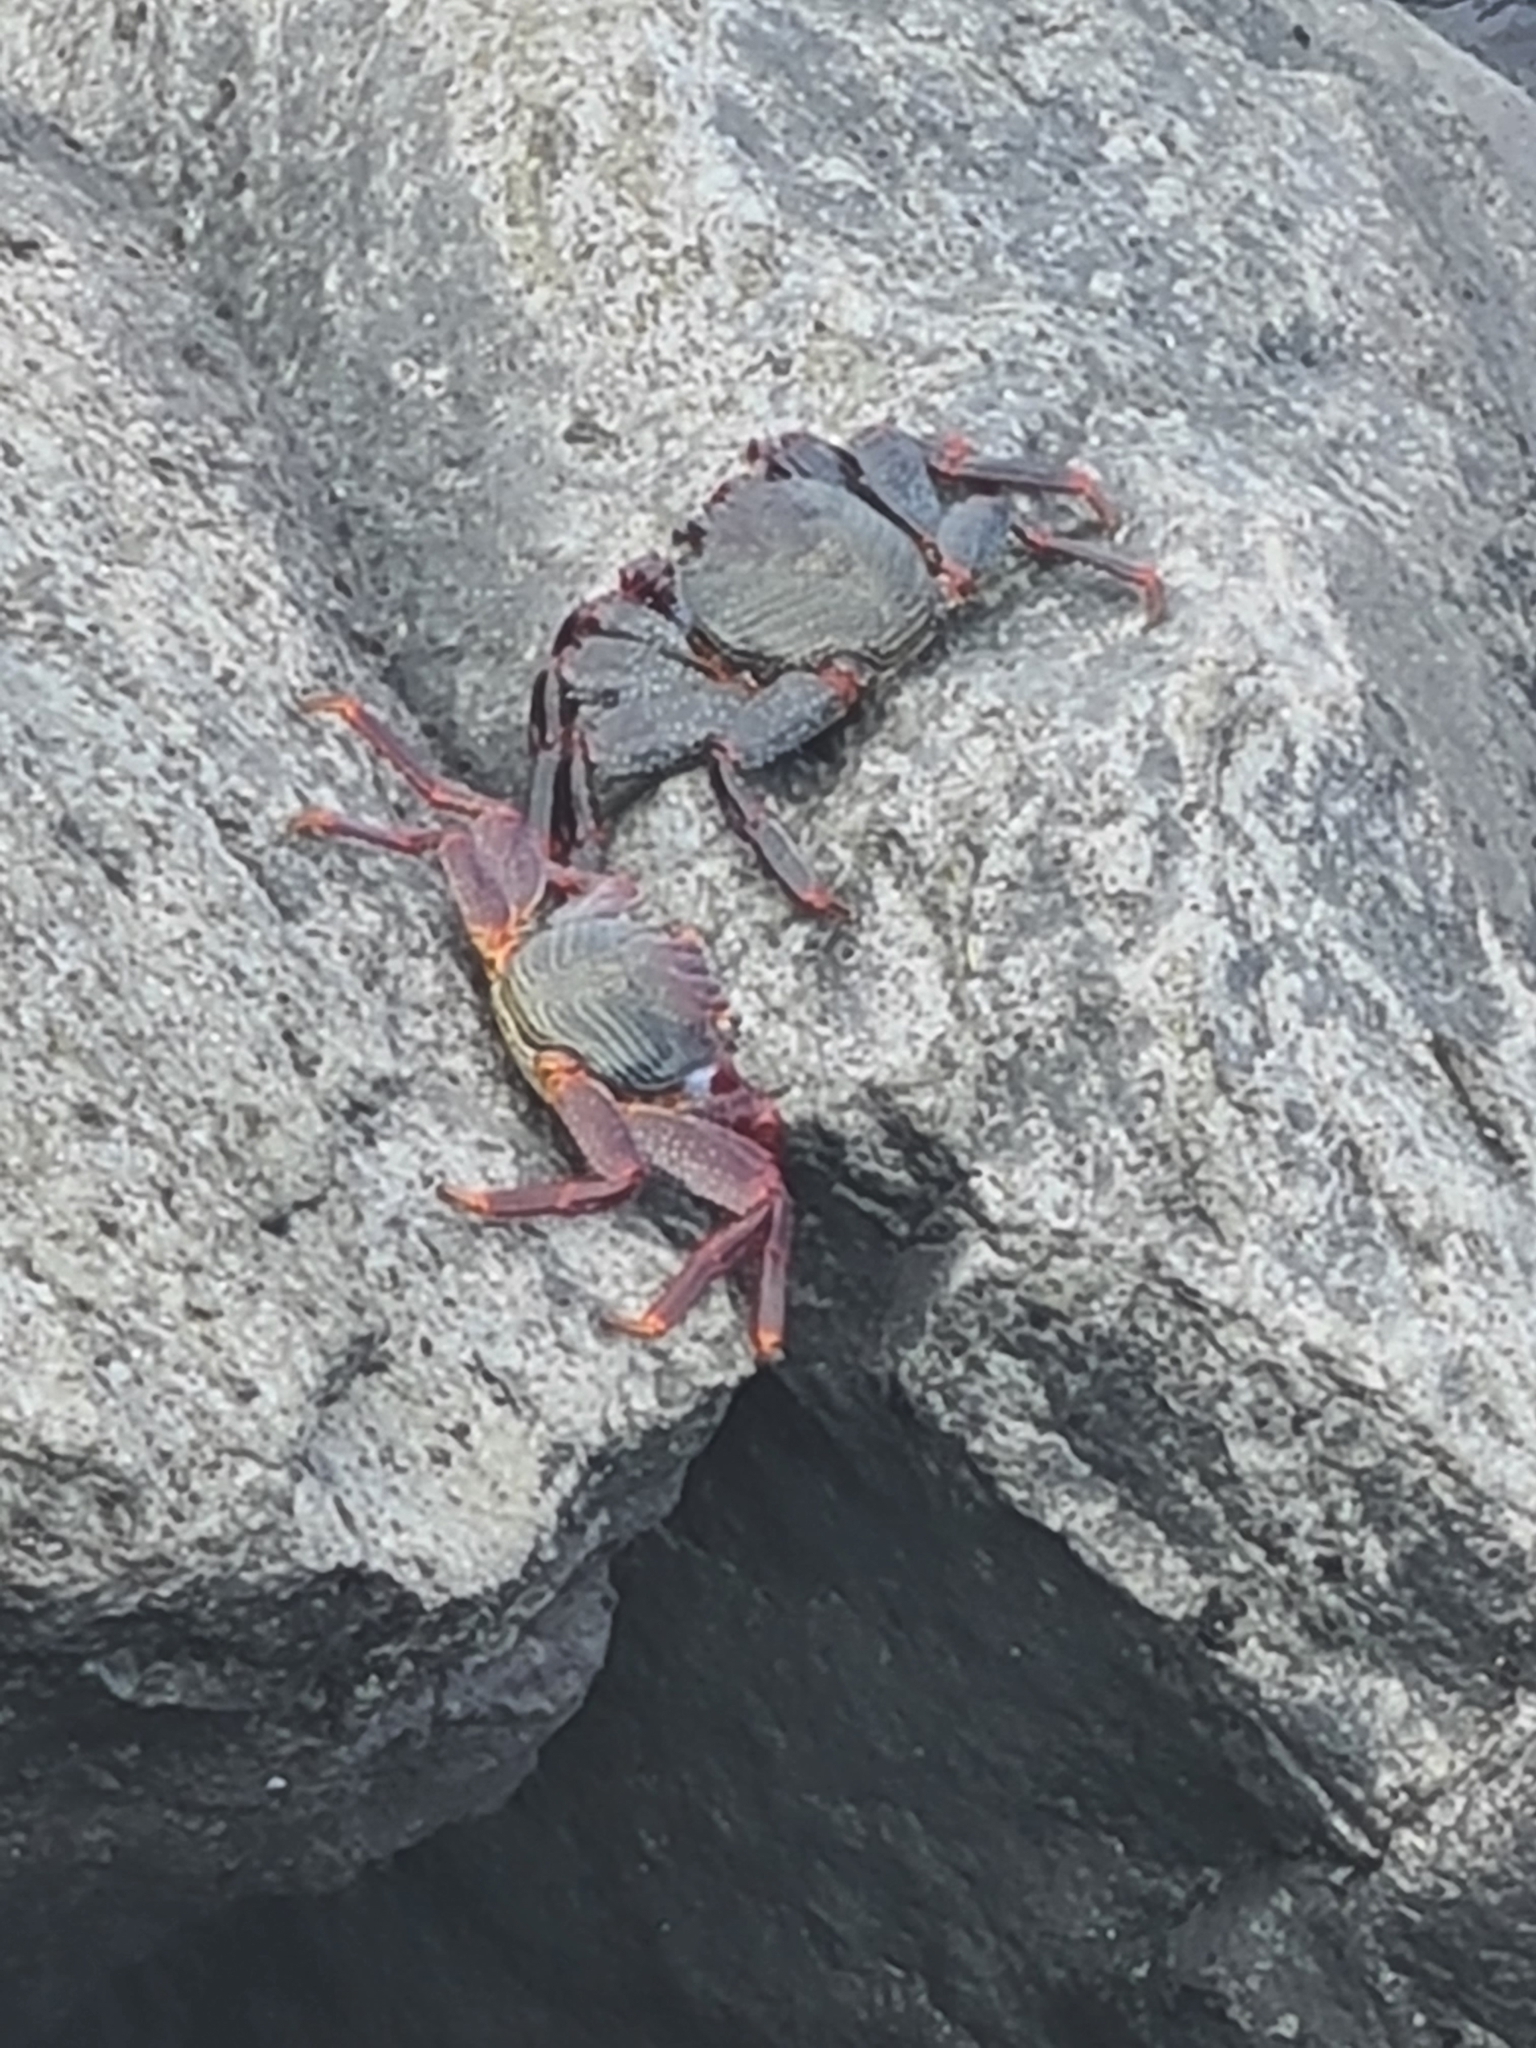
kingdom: Animalia
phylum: Arthropoda
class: Malacostraca
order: Decapoda
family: Grapsidae
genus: Grapsus
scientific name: Grapsus adscensionis
